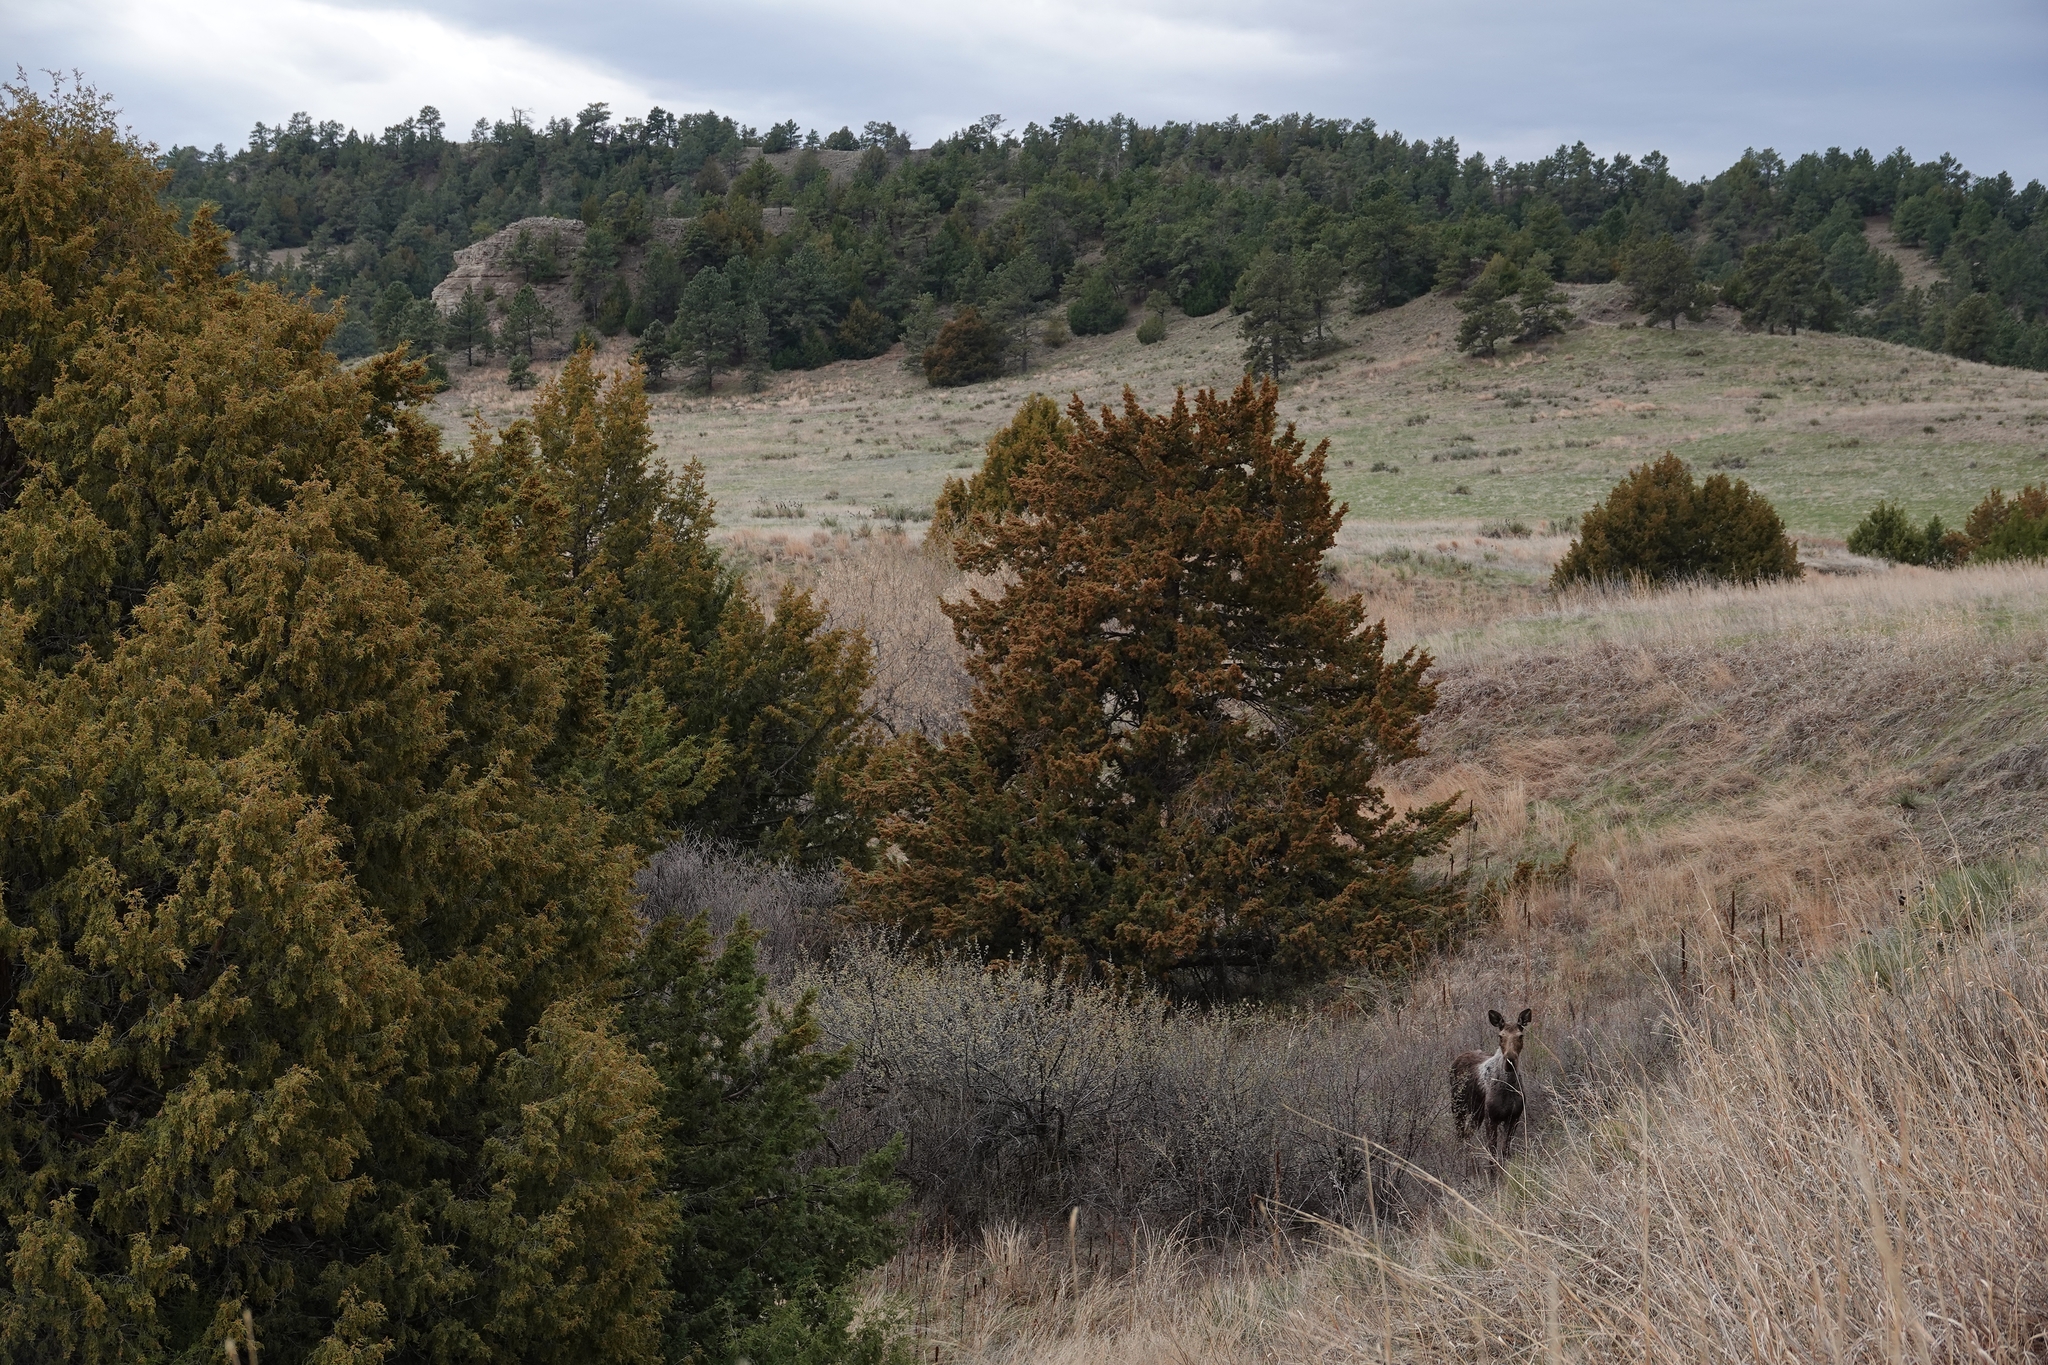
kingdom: Animalia
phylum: Chordata
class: Mammalia
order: Artiodactyla
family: Cervidae
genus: Alces
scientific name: Alces alces
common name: Moose
